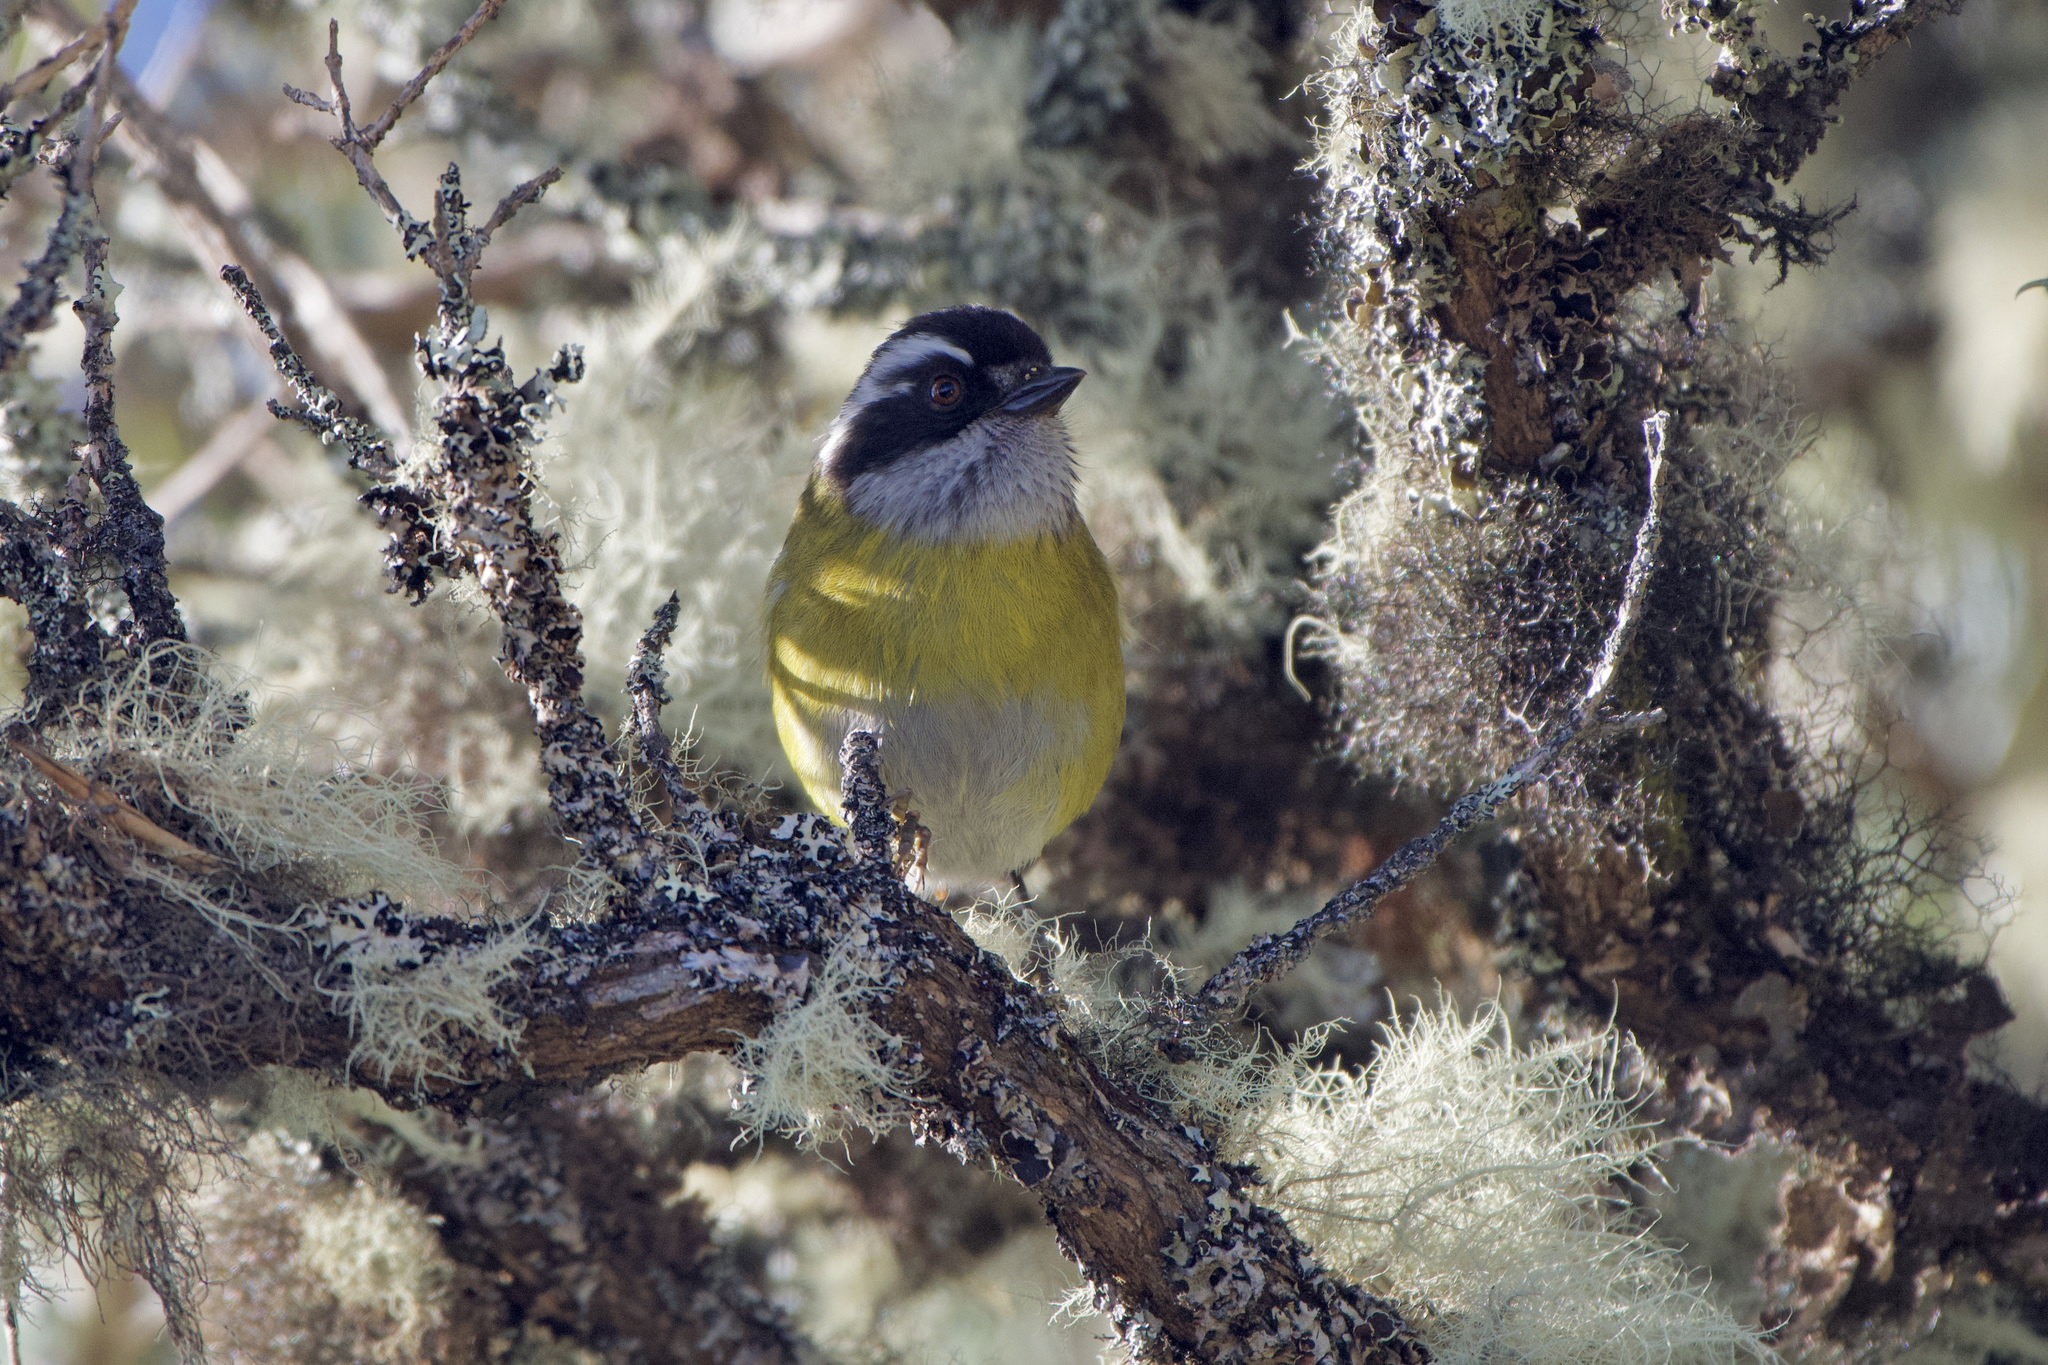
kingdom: Animalia
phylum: Chordata
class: Aves
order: Passeriformes
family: Passerellidae
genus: Chlorospingus
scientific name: Chlorospingus pileatus
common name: Sooty-capped bush-tanager
